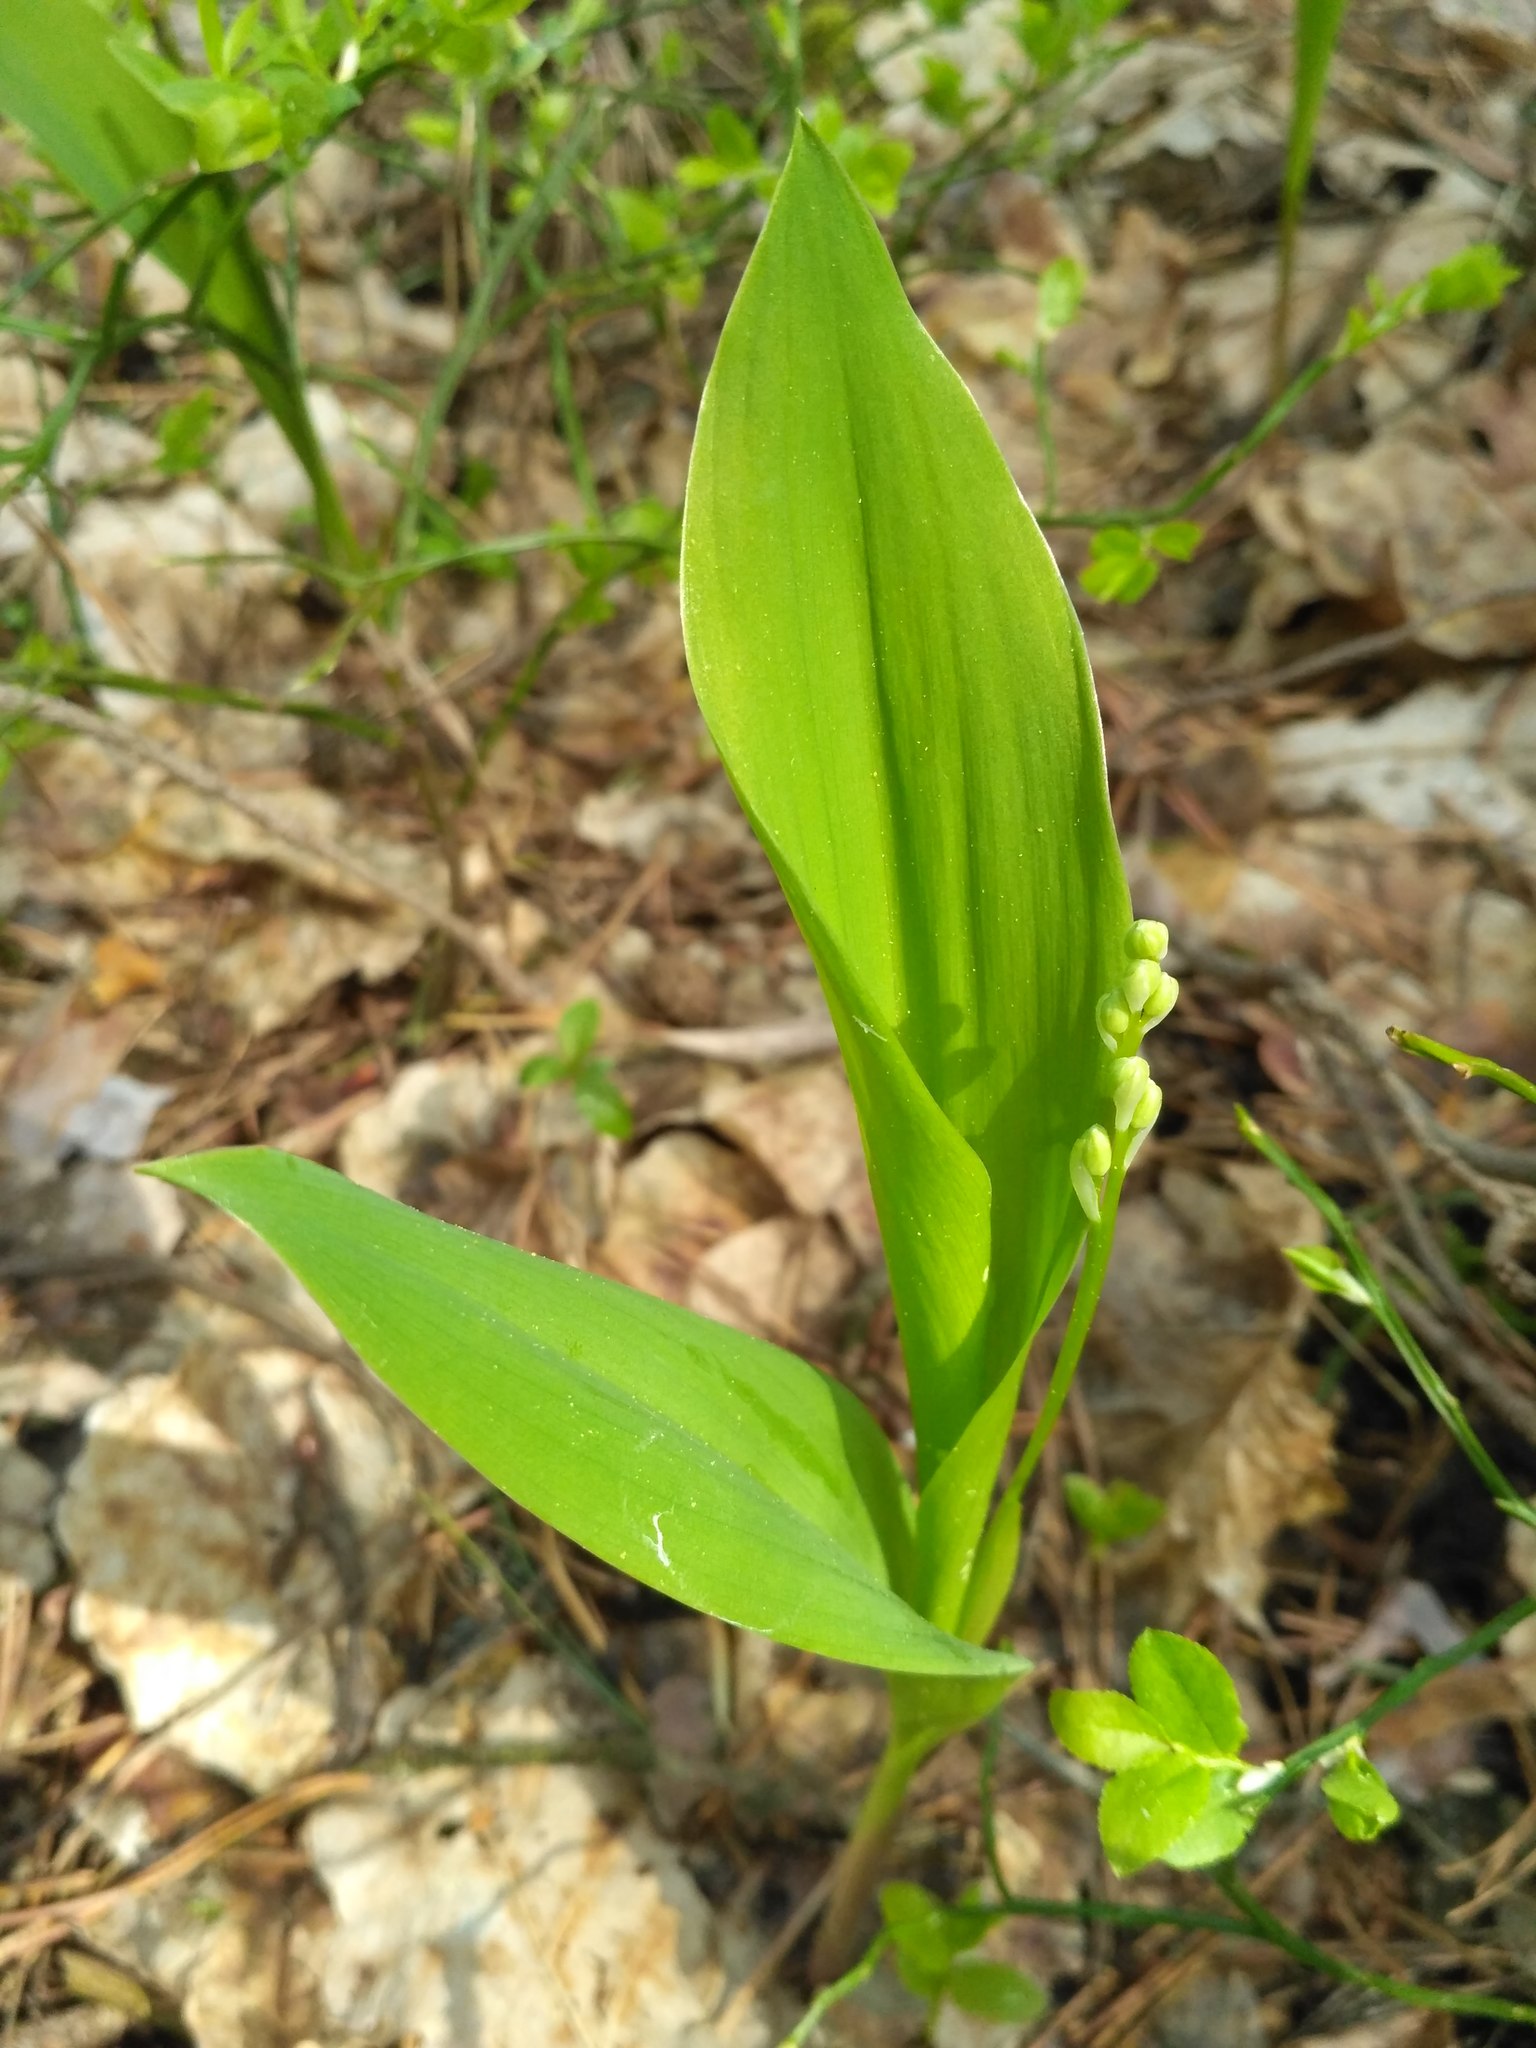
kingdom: Plantae
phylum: Tracheophyta
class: Liliopsida
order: Asparagales
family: Asparagaceae
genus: Convallaria
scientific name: Convallaria majalis
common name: Lily-of-the-valley
